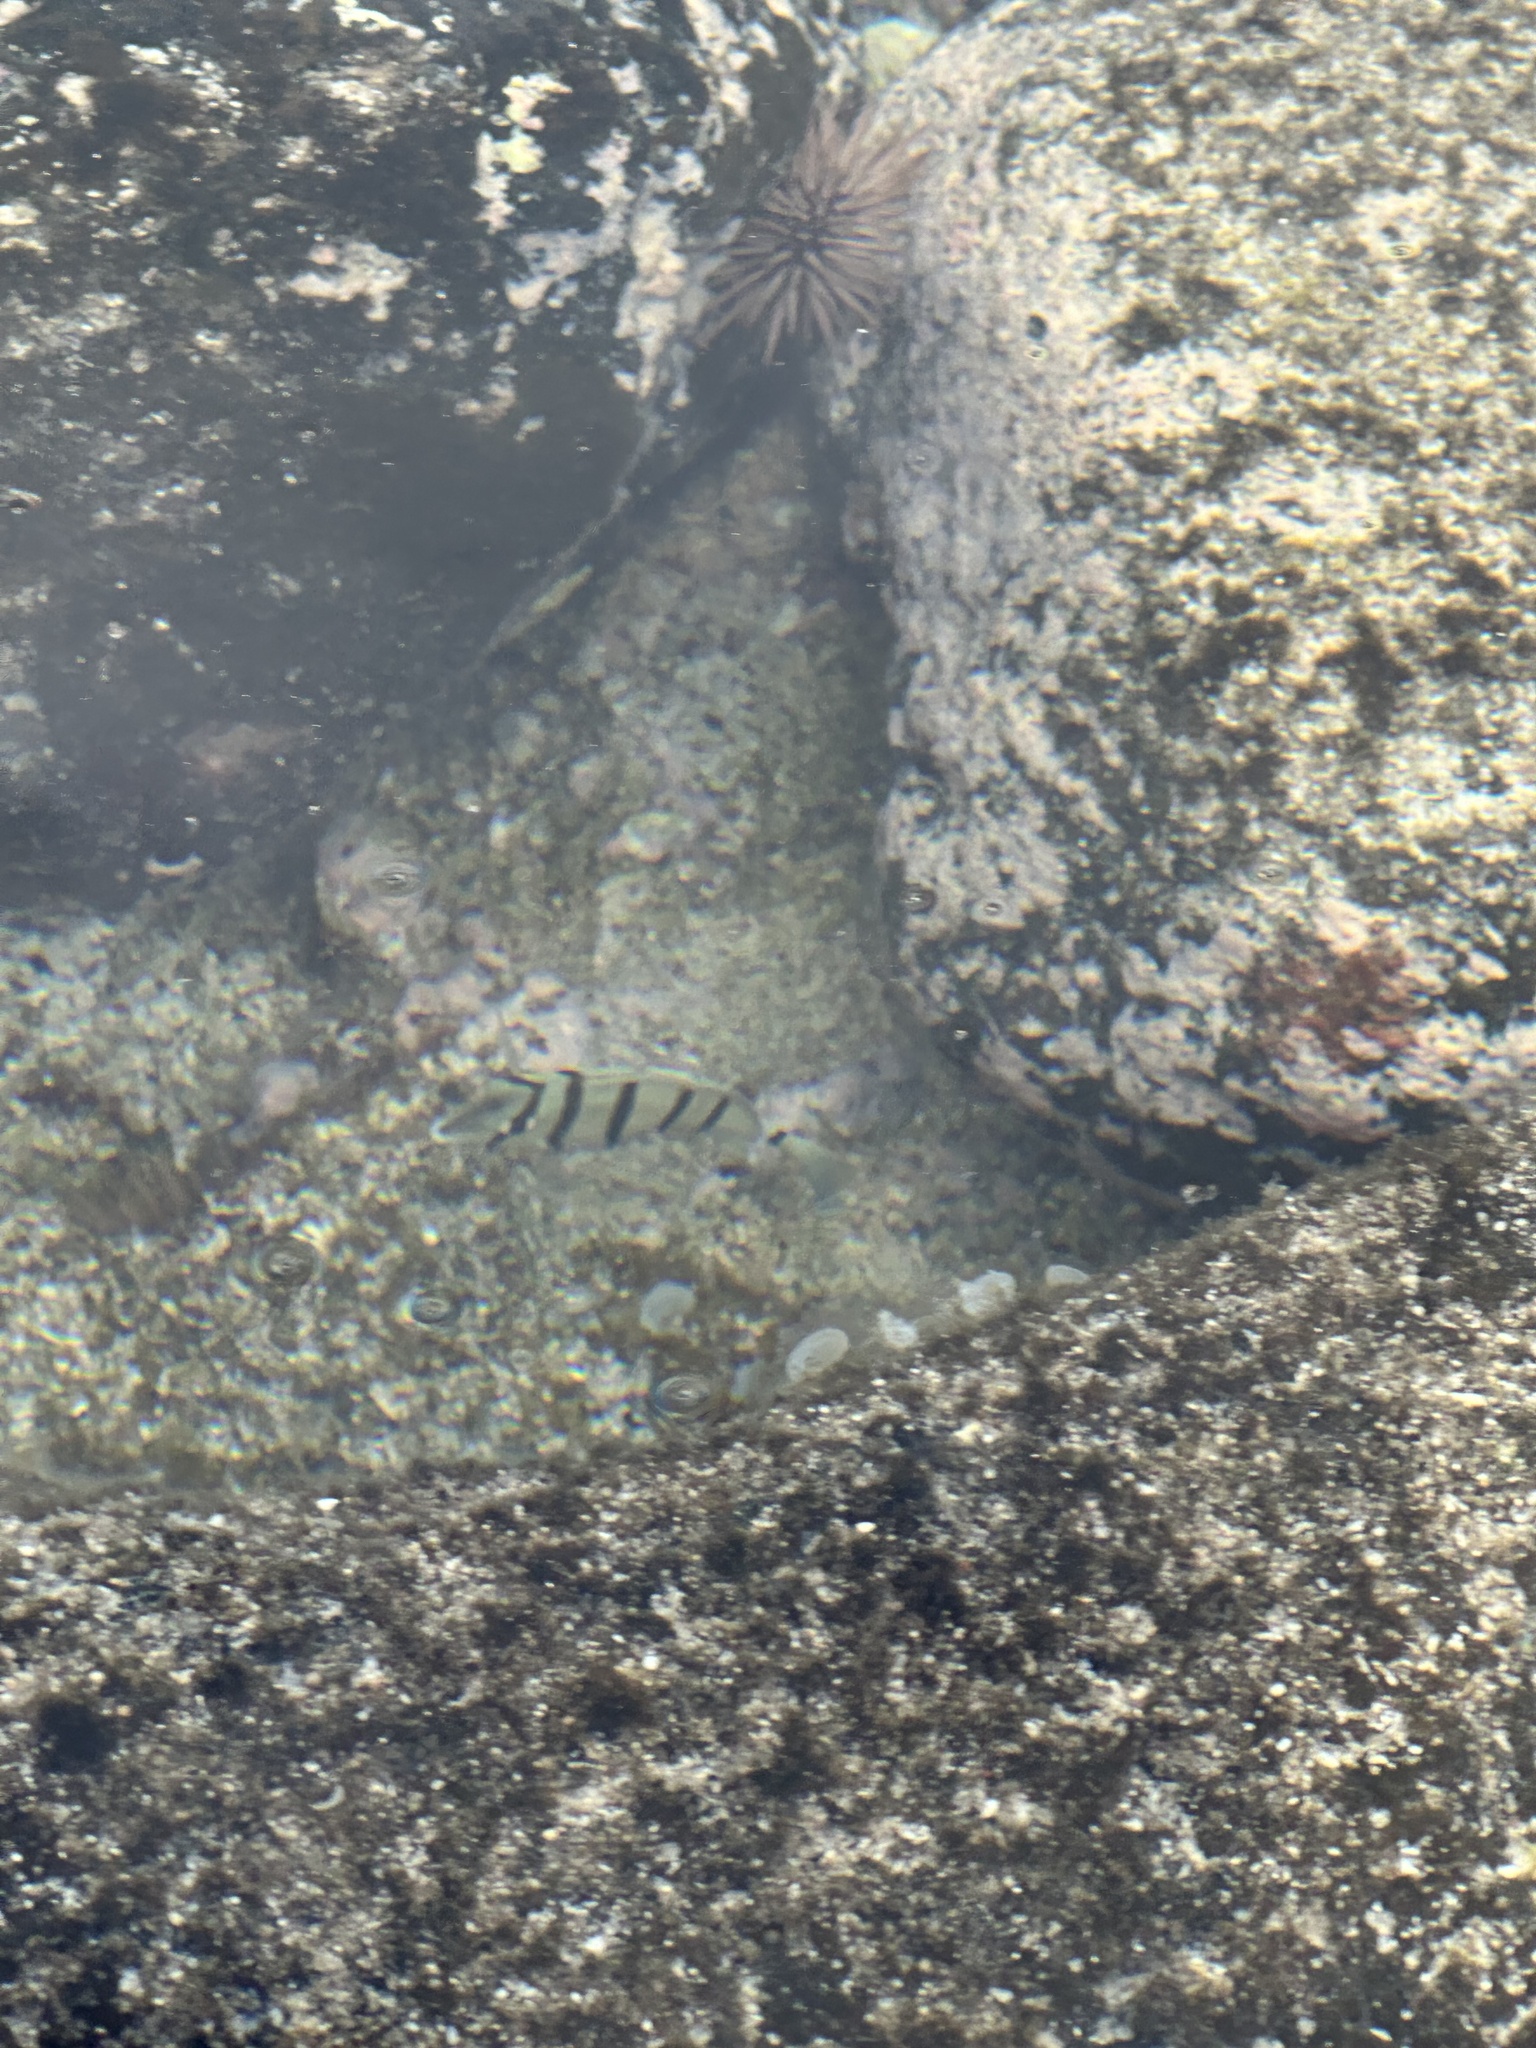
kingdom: Animalia
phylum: Chordata
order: Perciformes
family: Acanthuridae
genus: Acanthurus
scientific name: Acanthurus triostegus
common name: Convict surgeonfish
